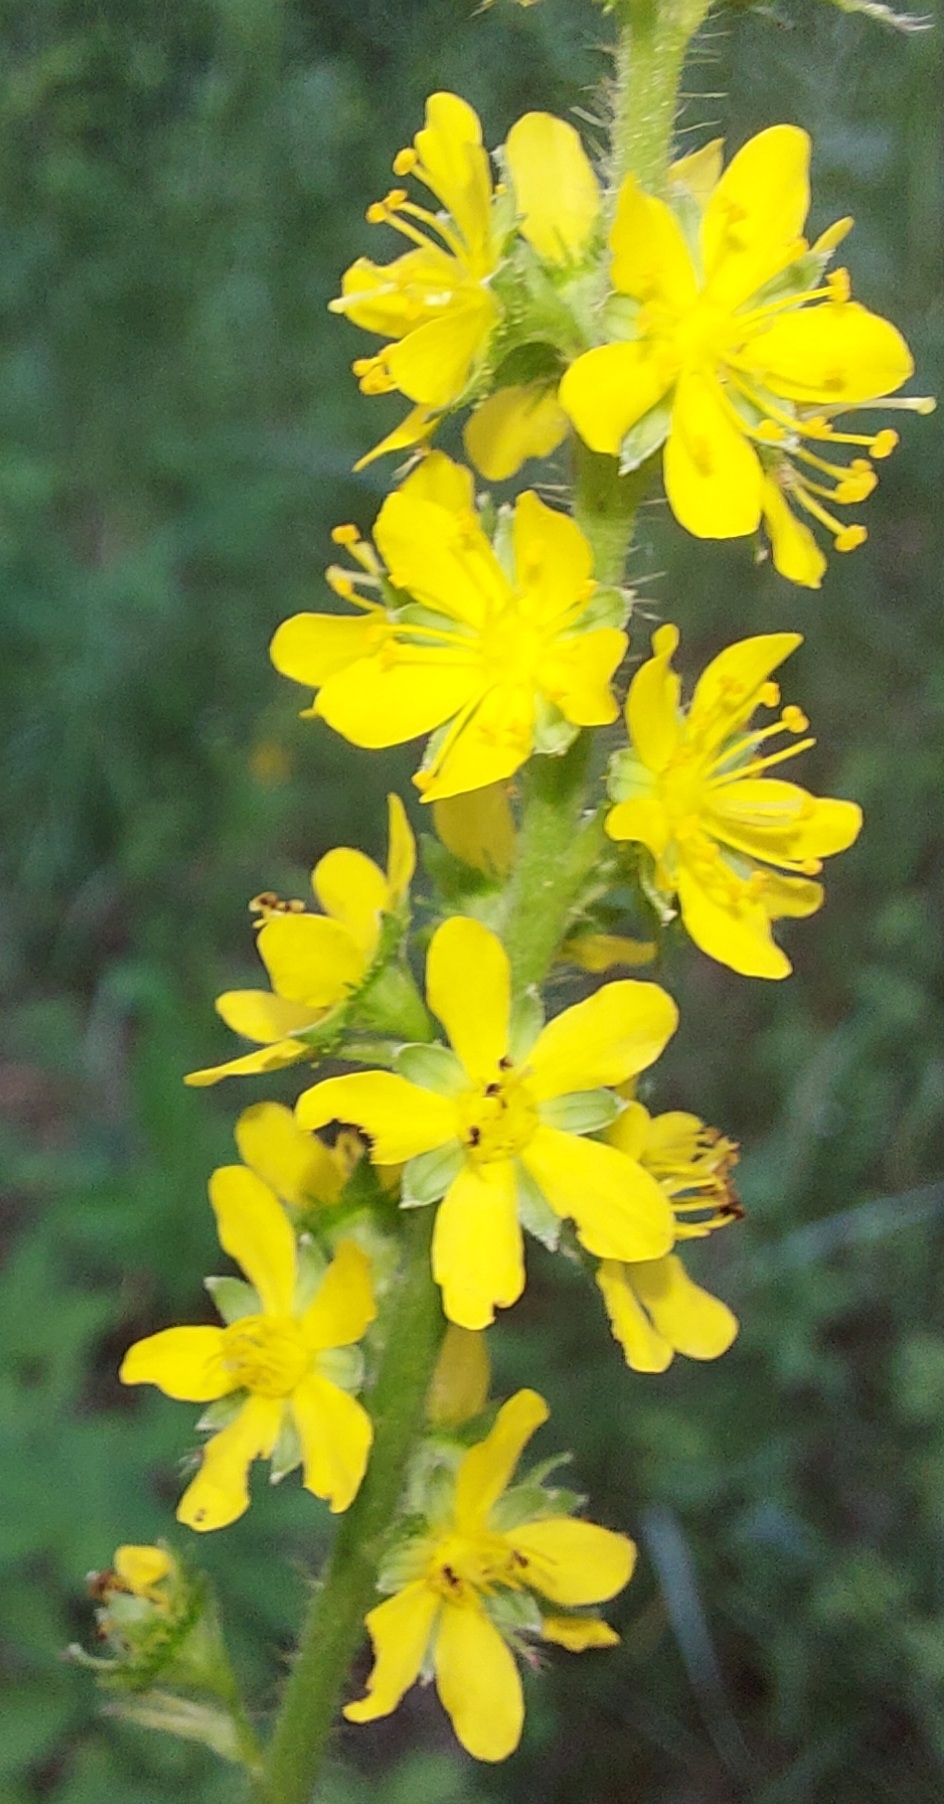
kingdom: Plantae
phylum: Tracheophyta
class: Magnoliopsida
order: Rosales
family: Rosaceae
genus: Agrimonia
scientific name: Agrimonia pilosa
